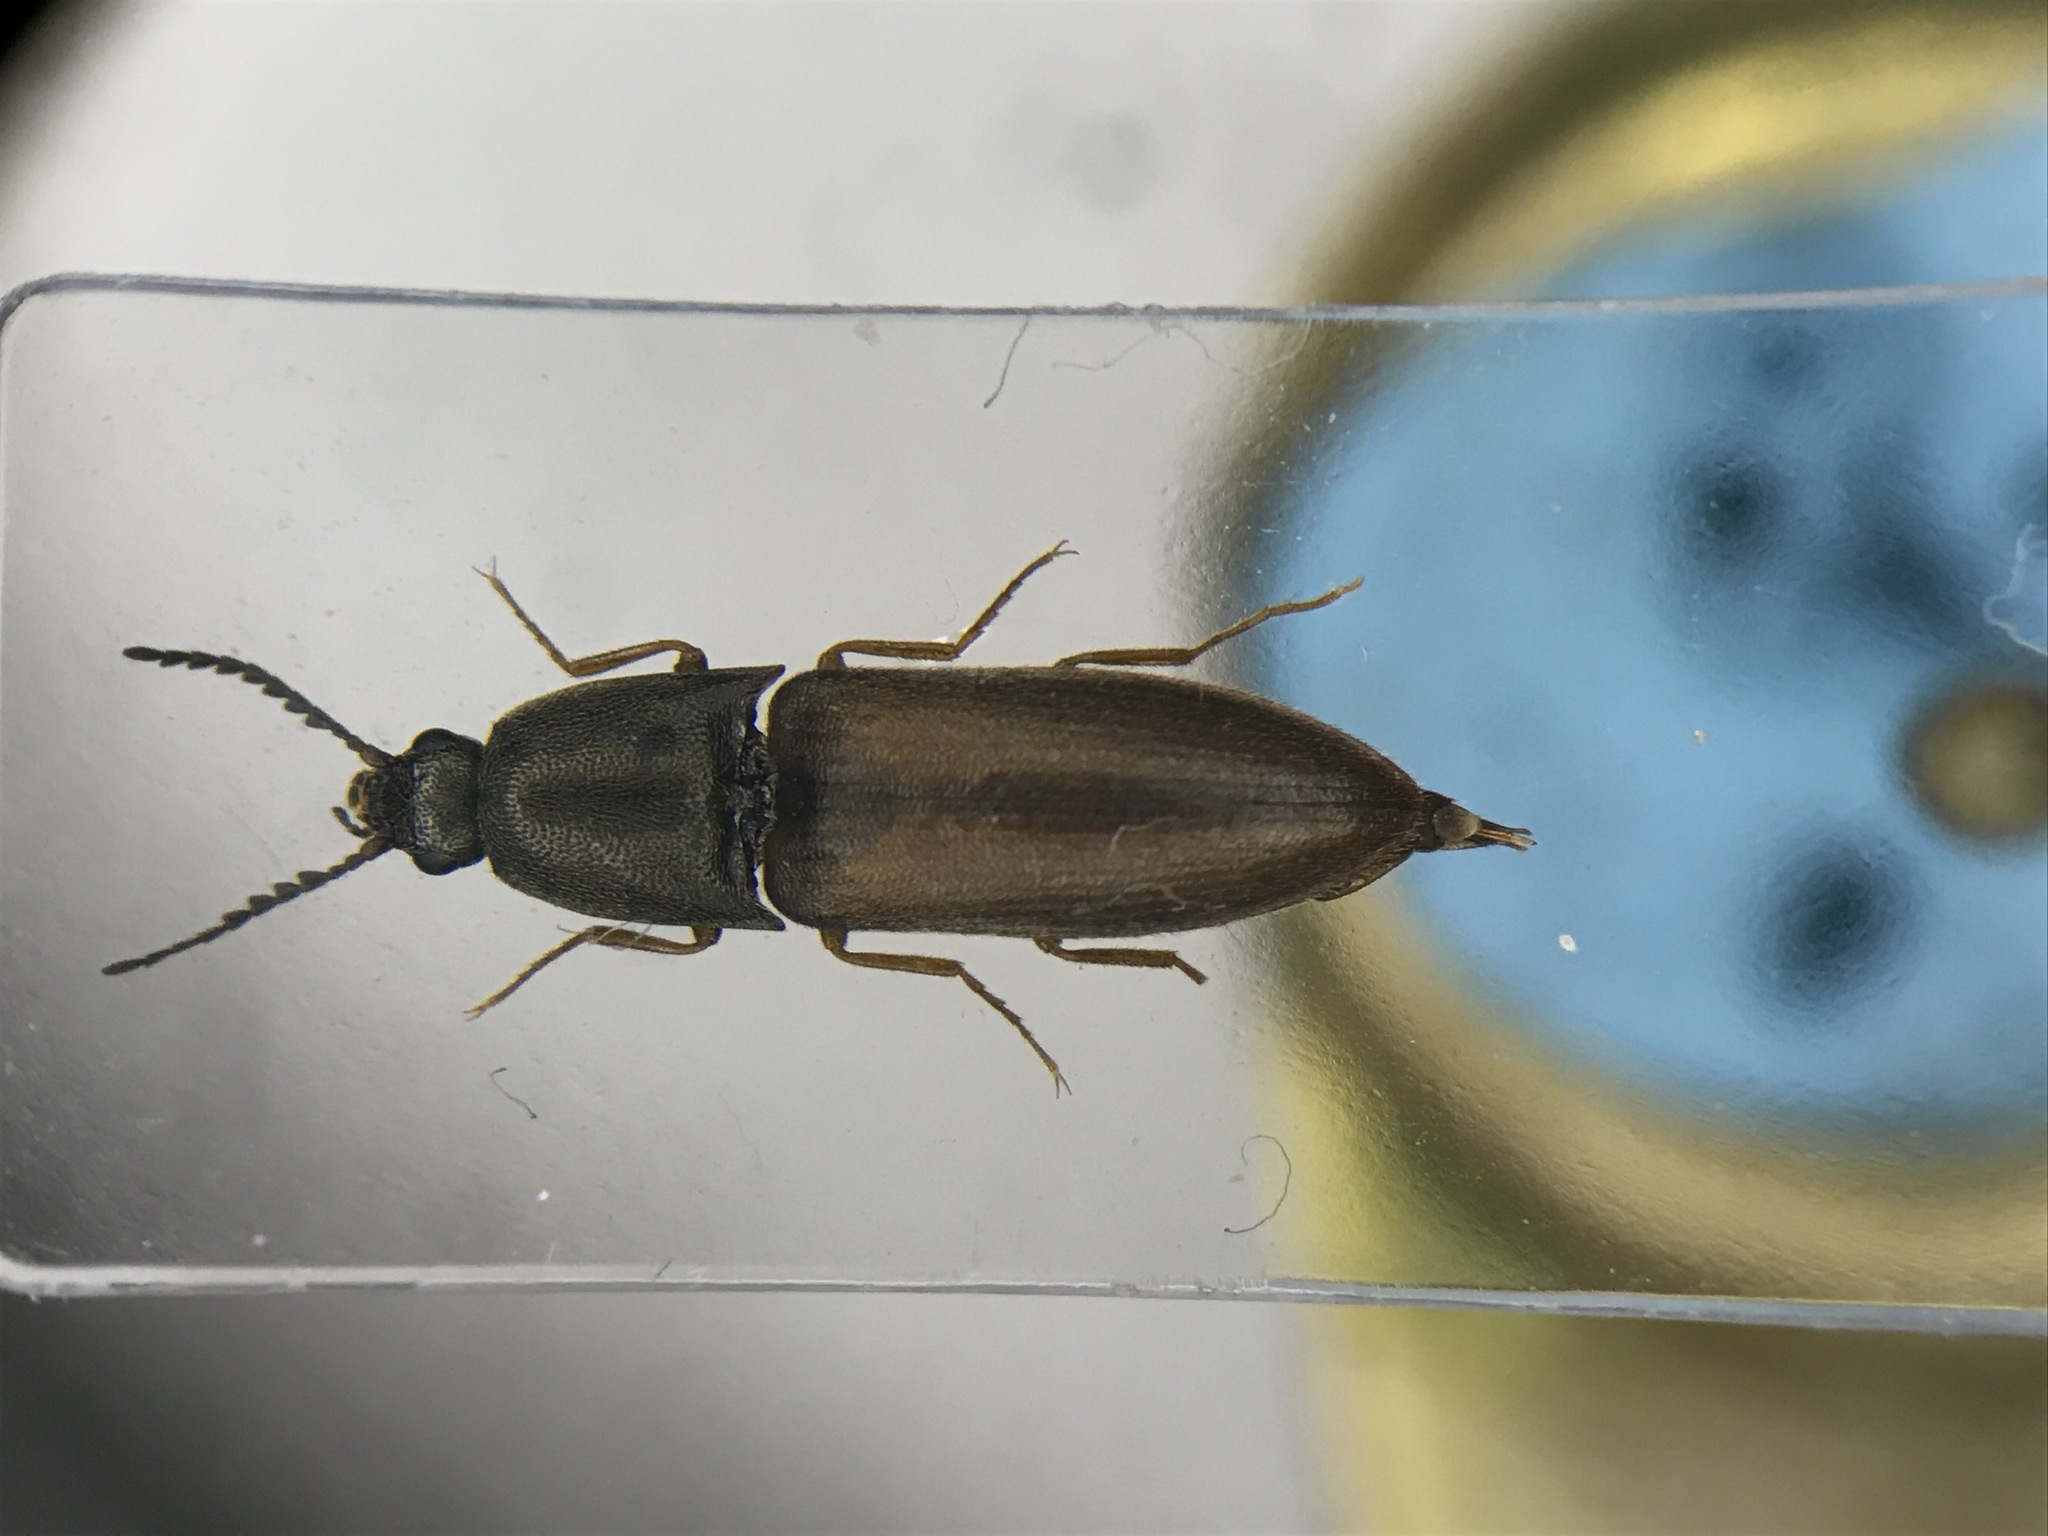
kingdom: Animalia
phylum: Arthropoda
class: Insecta
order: Coleoptera
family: Elateridae
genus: Sericus
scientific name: Sericus incongruus
